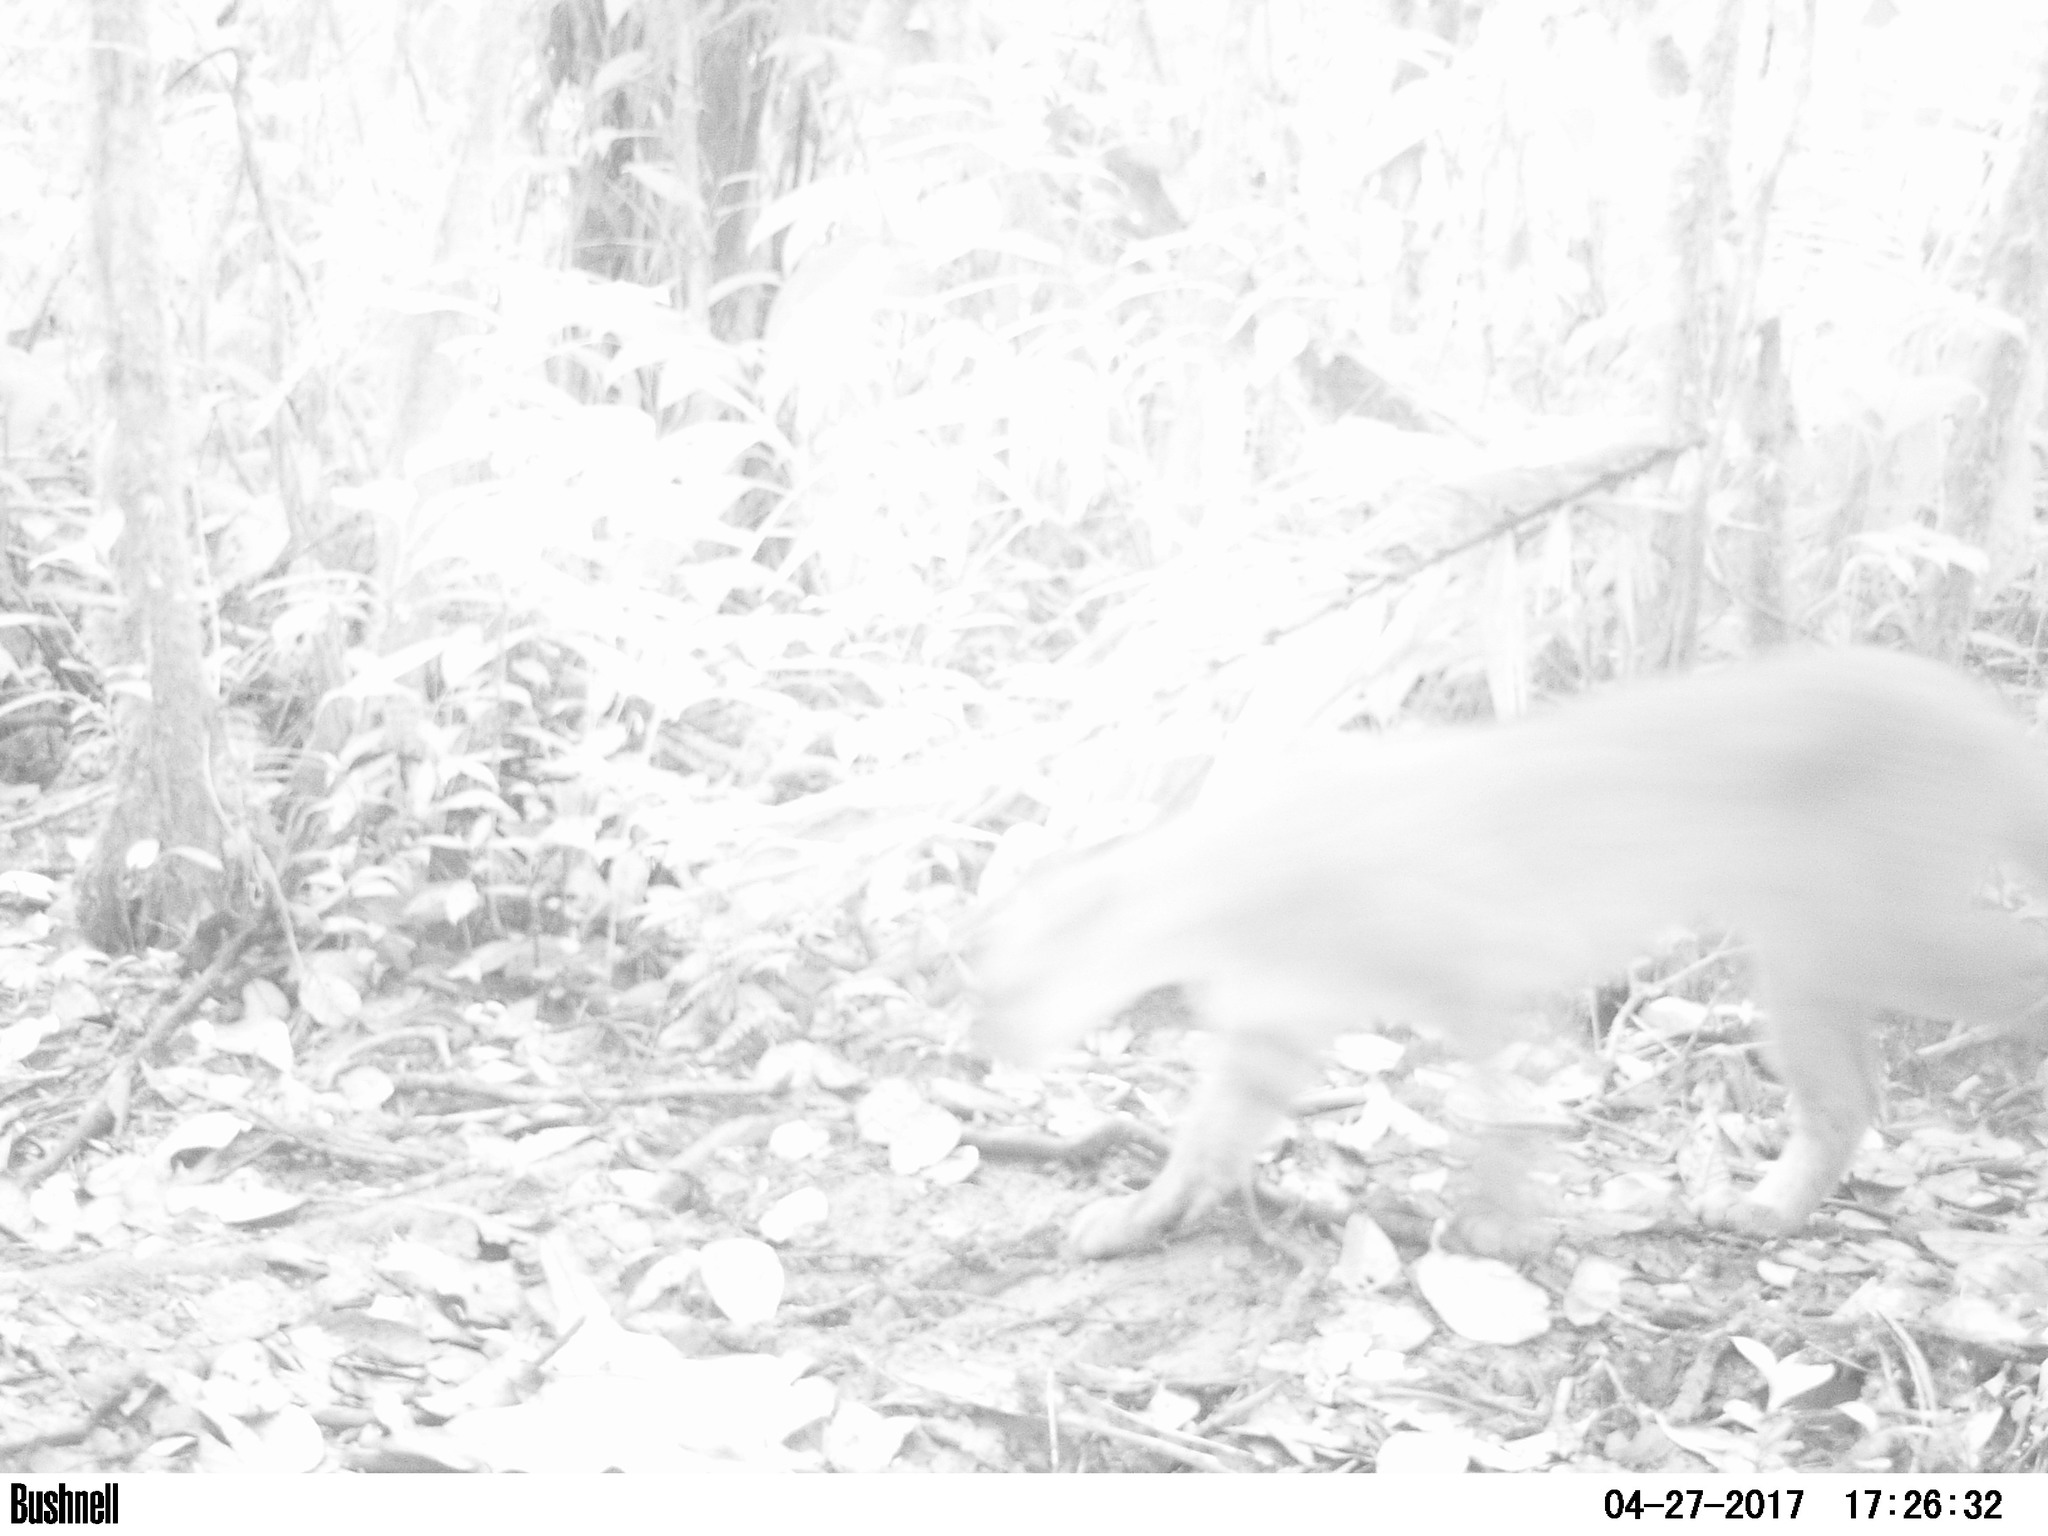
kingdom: Animalia
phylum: Chordata
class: Mammalia
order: Carnivora
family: Felidae
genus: Puma
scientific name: Puma concolor
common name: Puma
